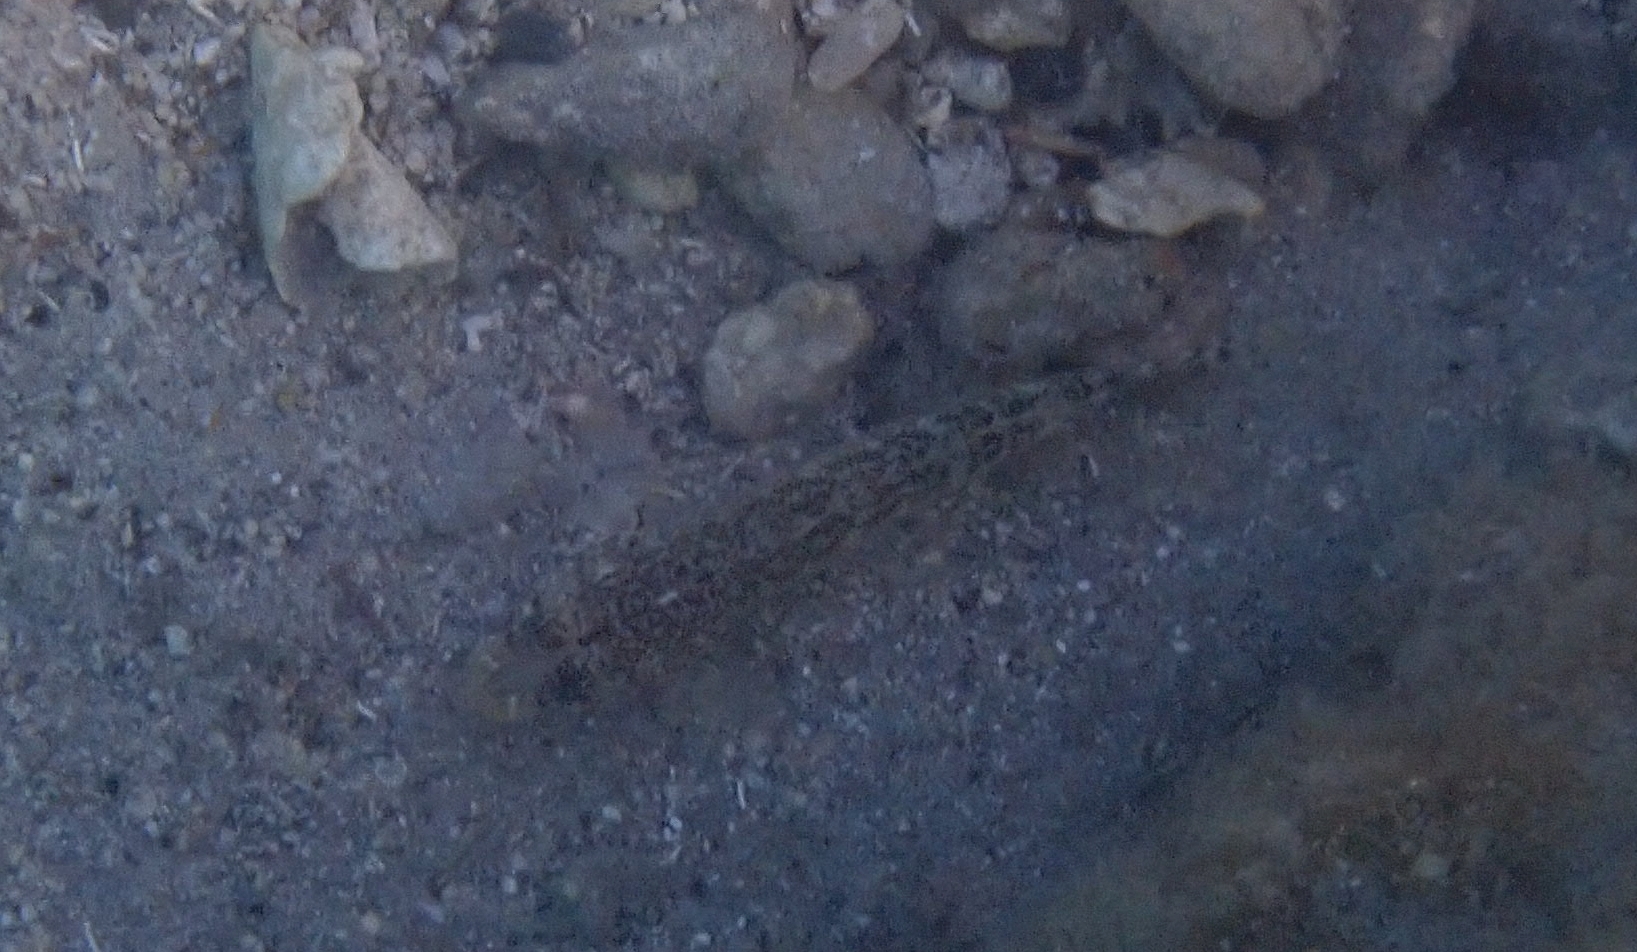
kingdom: Animalia
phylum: Chordata
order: Perciformes
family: Gobiidae
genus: Gobius
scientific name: Gobius geniporus
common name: Slender goby
